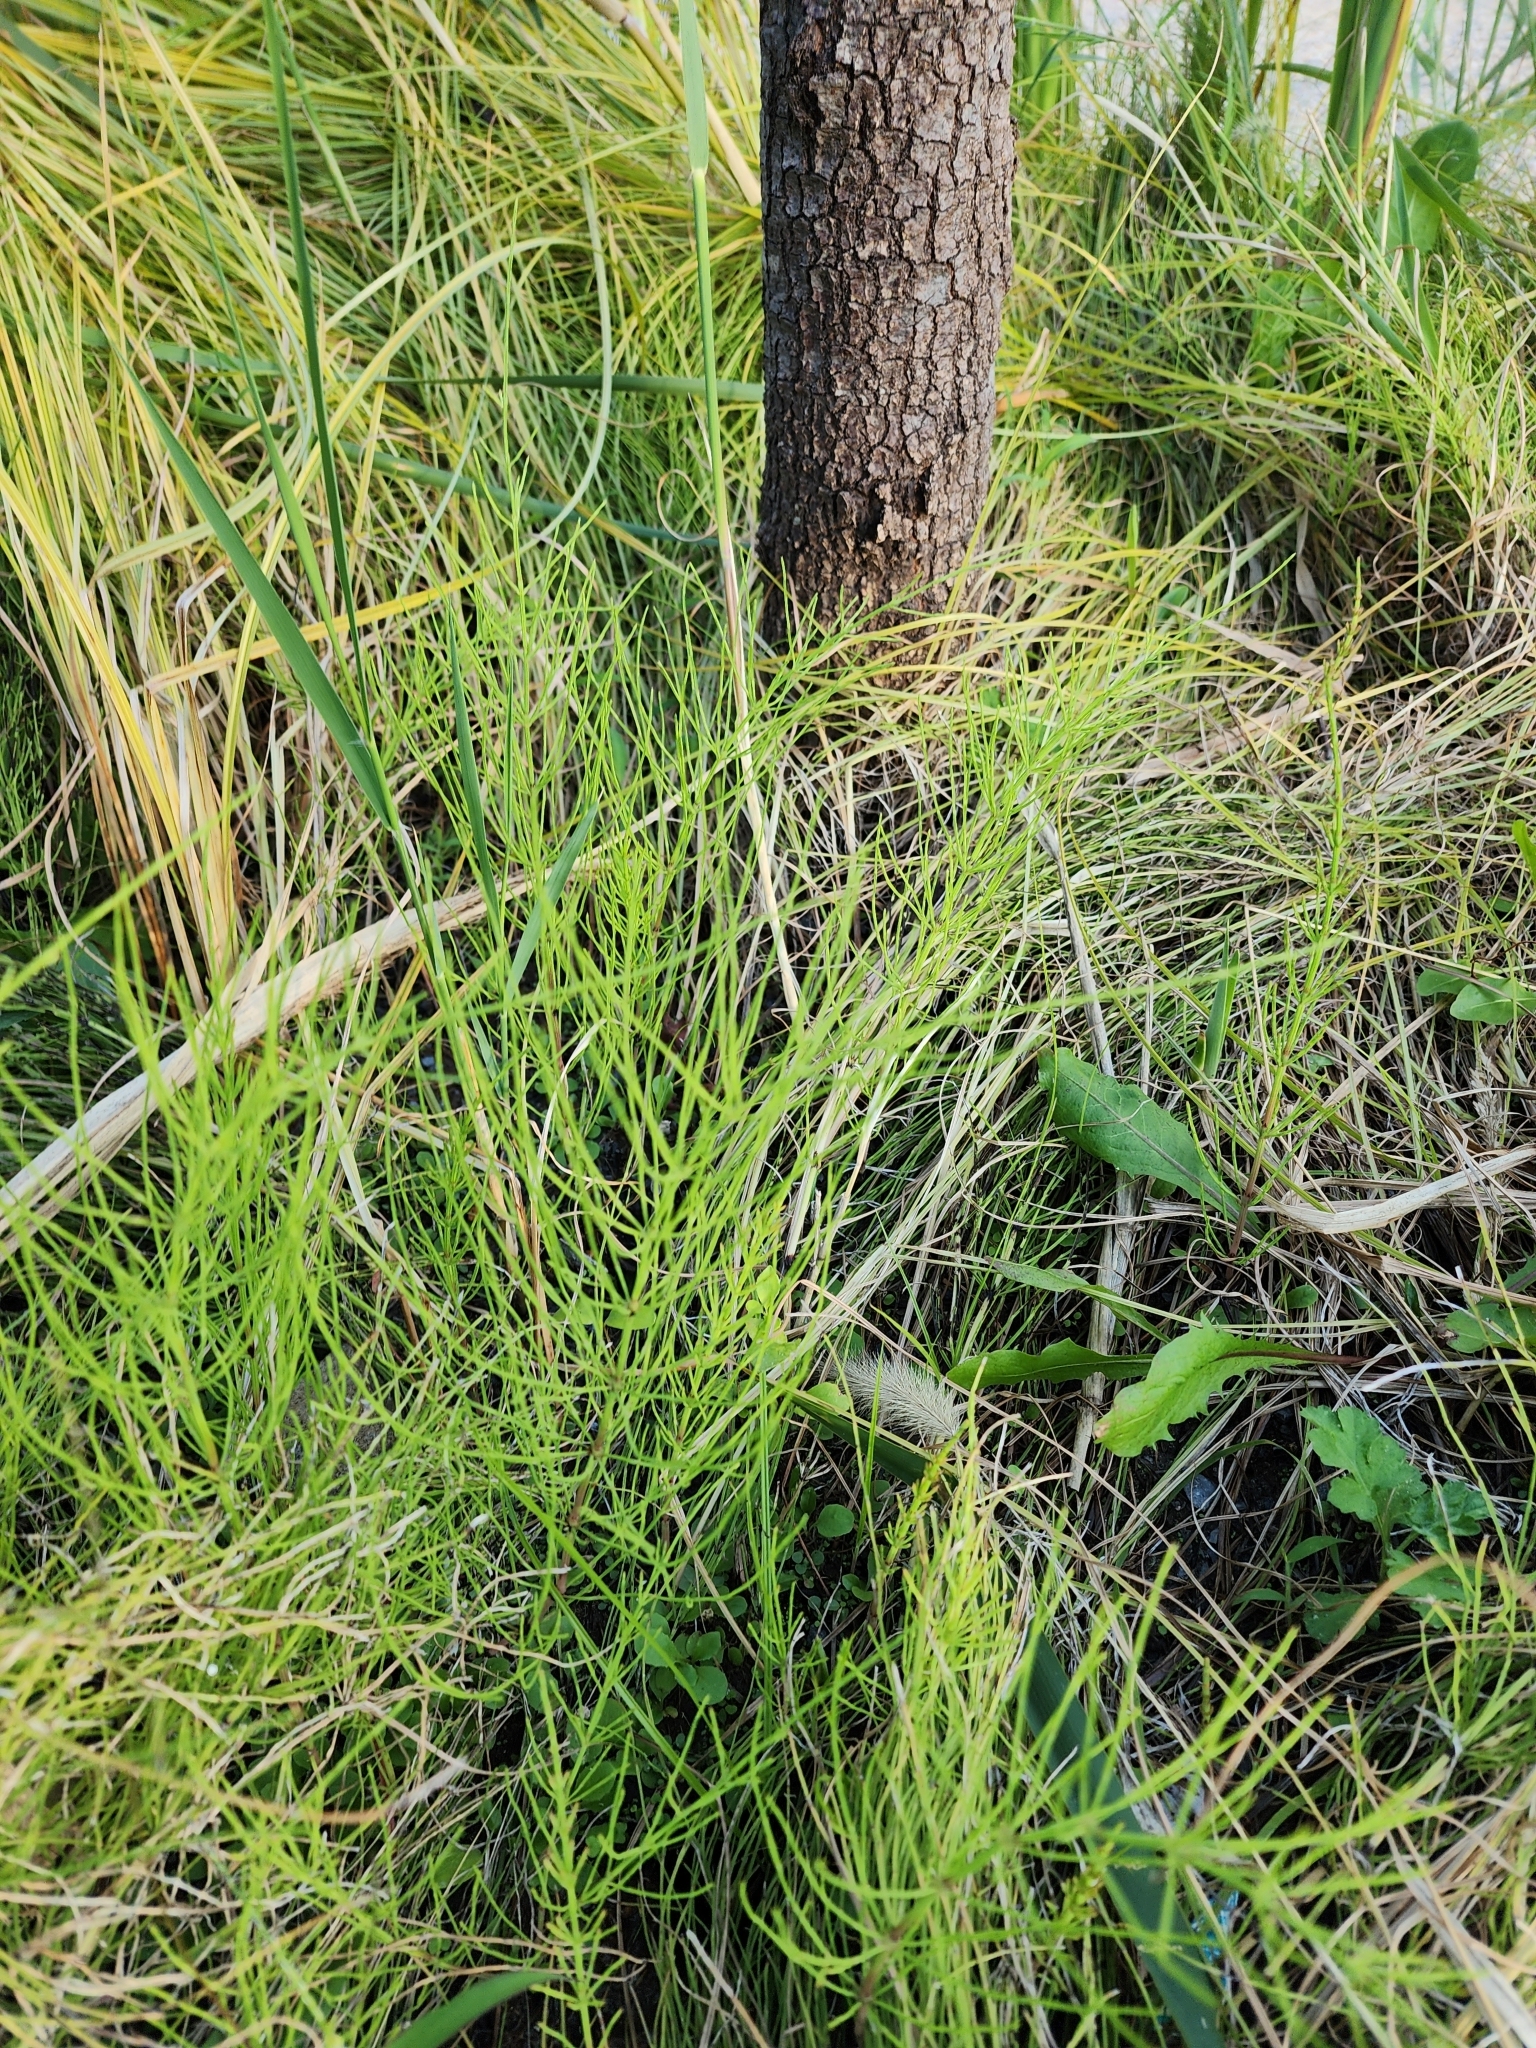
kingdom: Plantae
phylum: Tracheophyta
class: Polypodiopsida
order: Equisetales
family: Equisetaceae
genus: Equisetum
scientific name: Equisetum arvense
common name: Field horsetail
